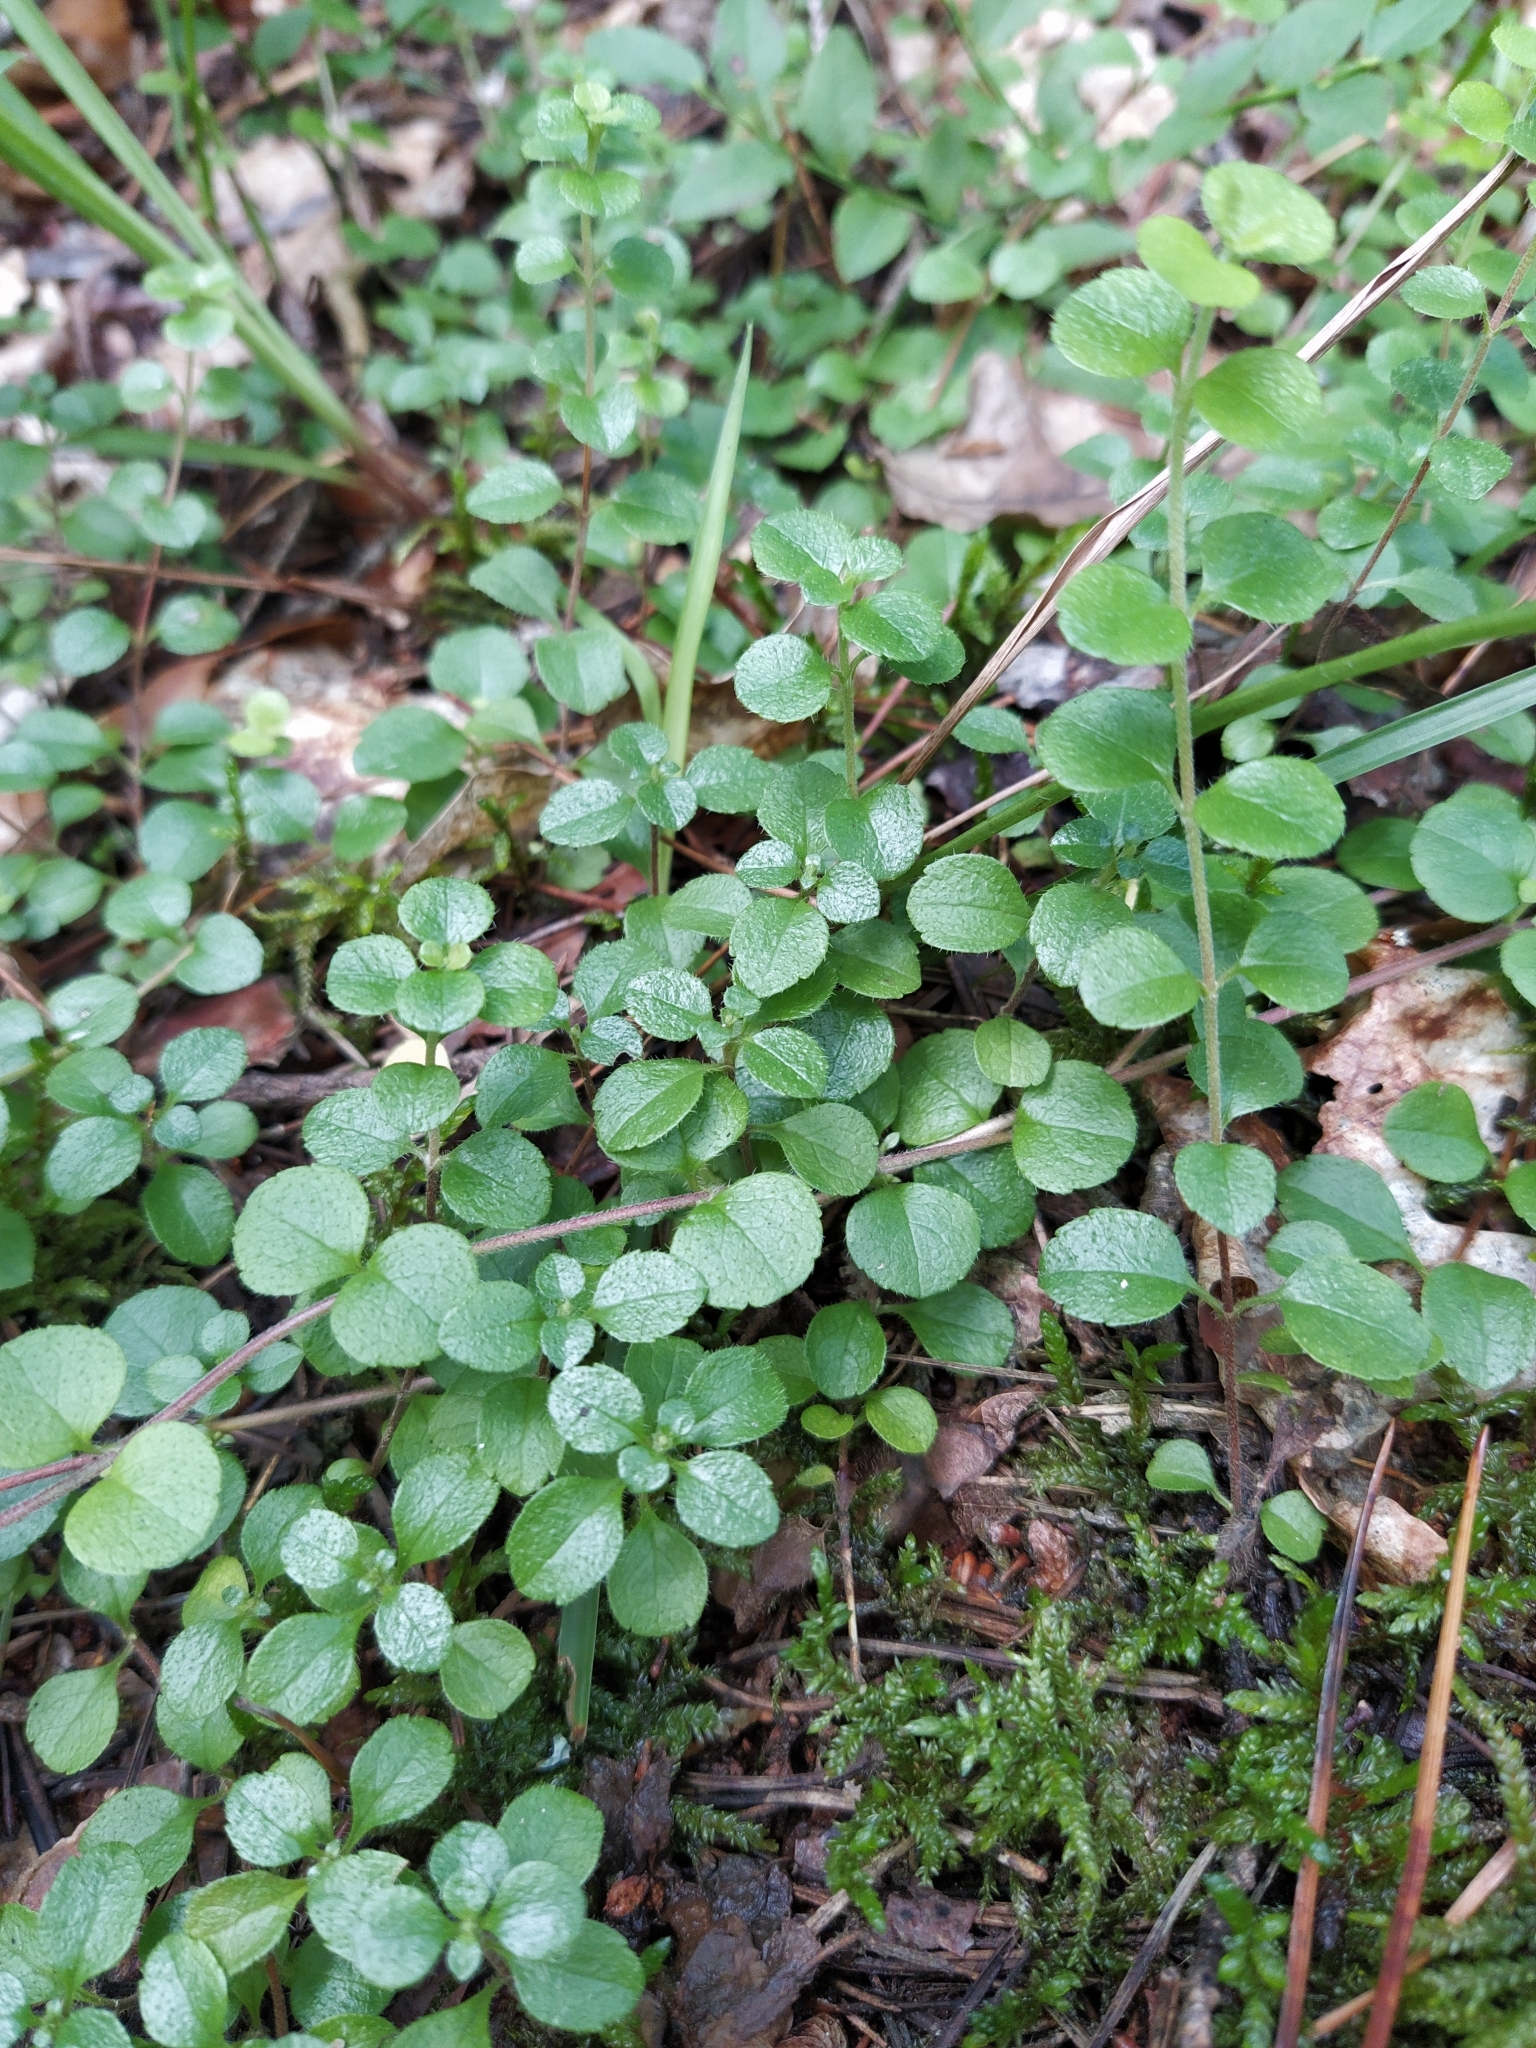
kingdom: Plantae
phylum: Tracheophyta
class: Magnoliopsida
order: Dipsacales
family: Caprifoliaceae
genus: Linnaea
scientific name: Linnaea borealis
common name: Twinflower
